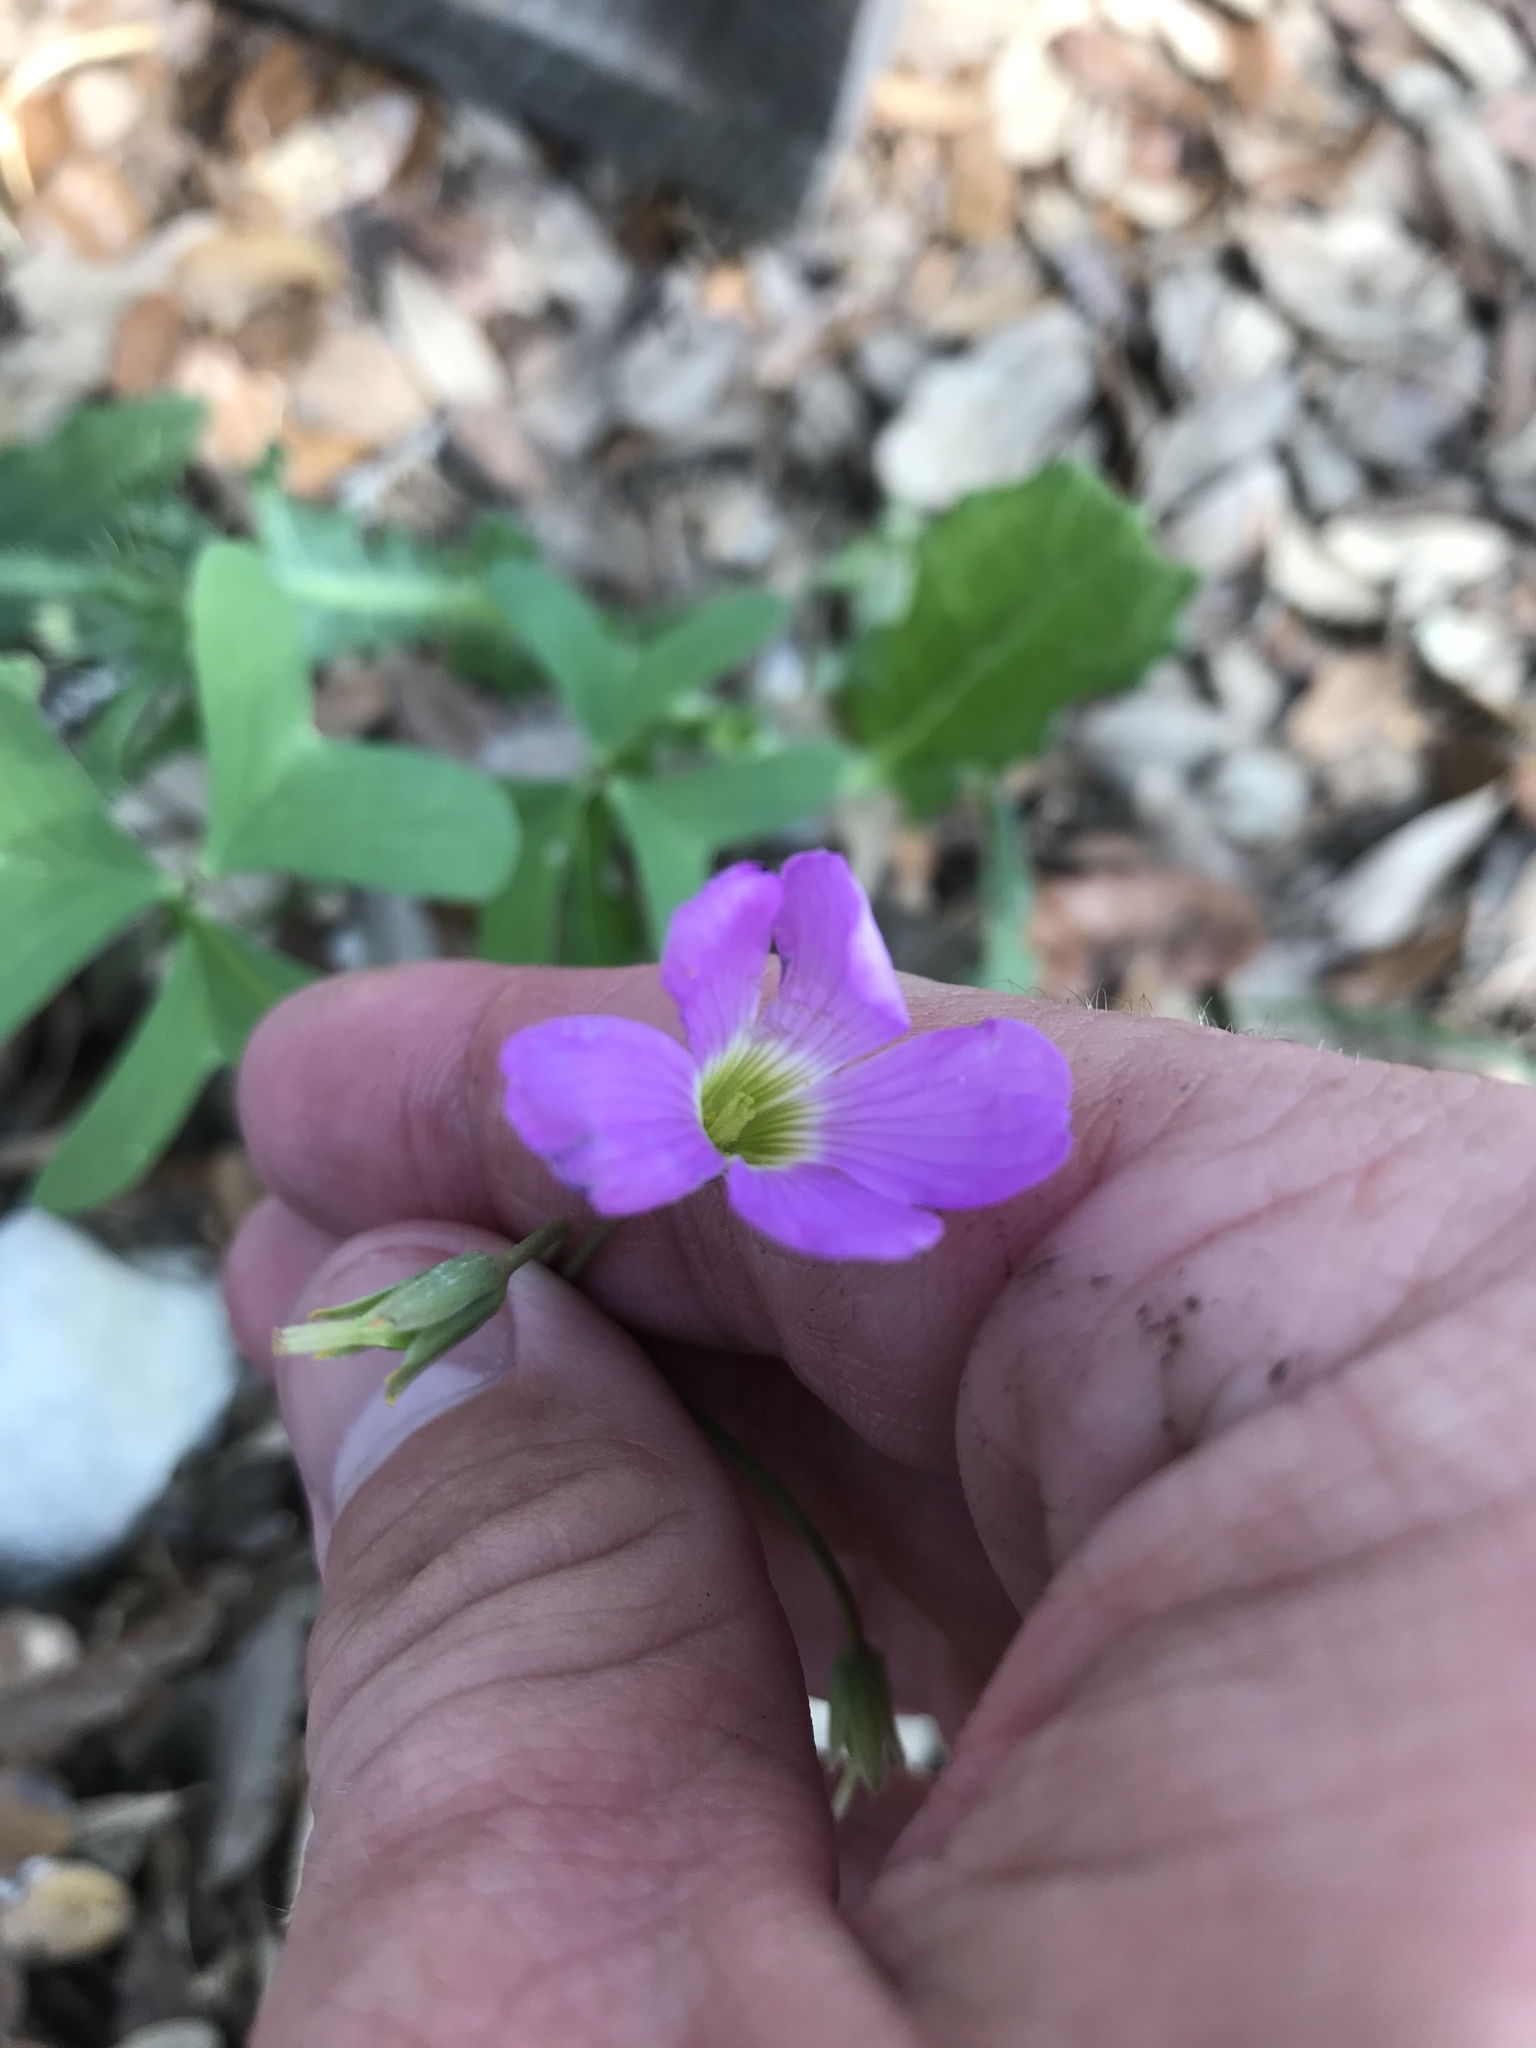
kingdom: Plantae
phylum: Tracheophyta
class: Magnoliopsida
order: Oxalidales
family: Oxalidaceae
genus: Oxalis
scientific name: Oxalis drummondii
